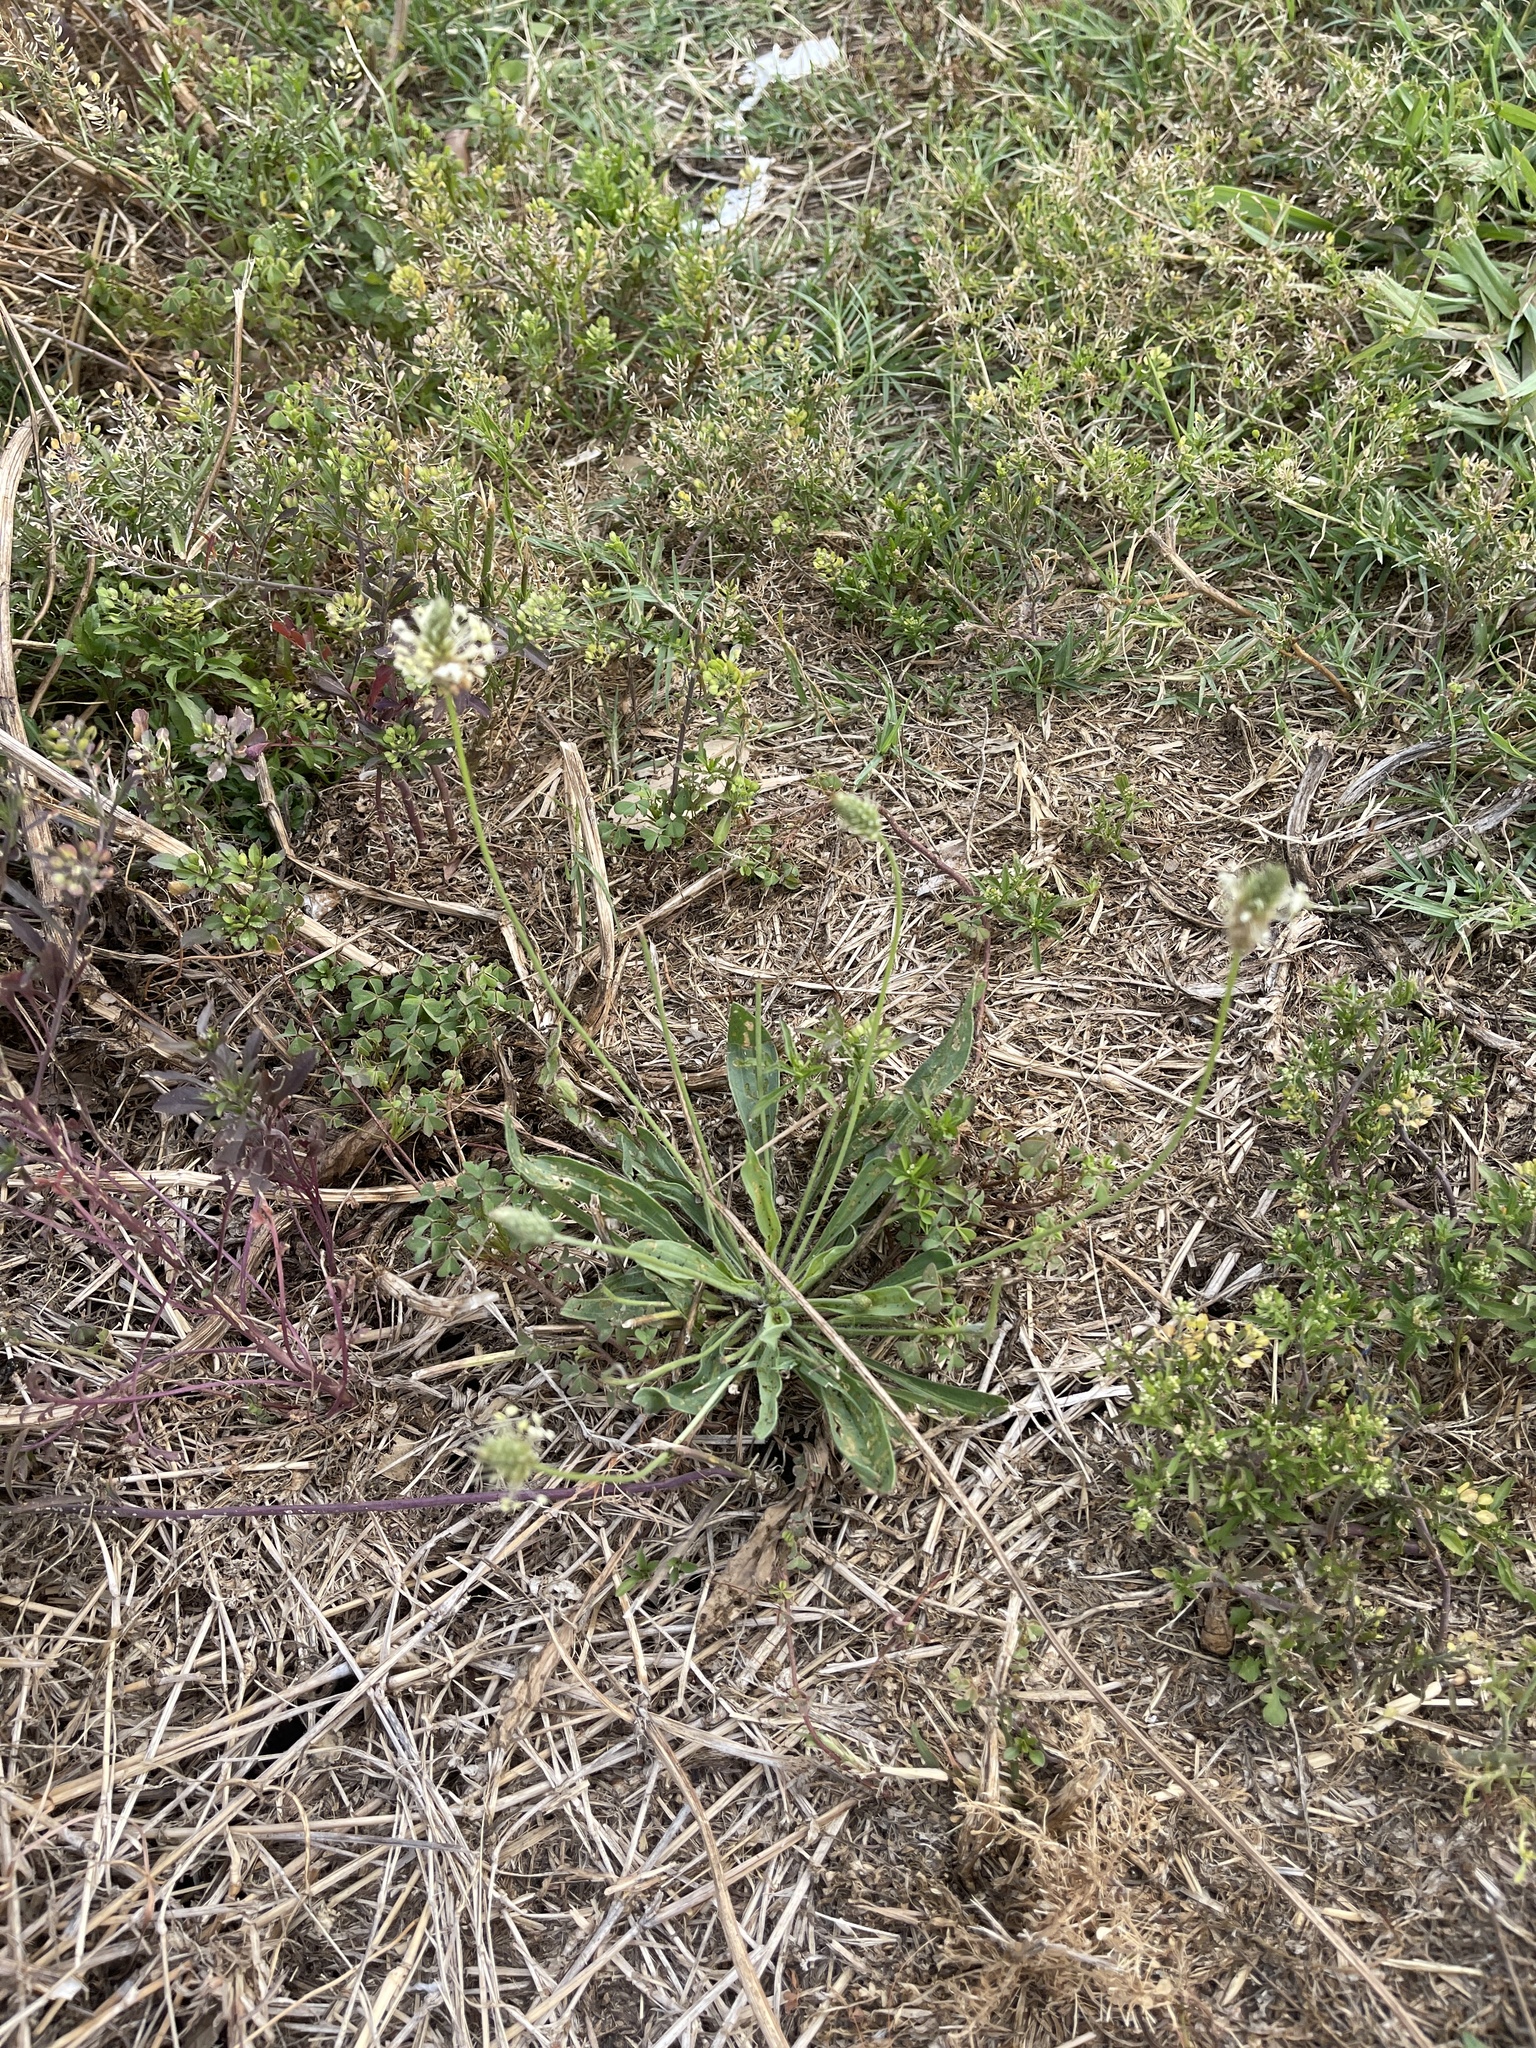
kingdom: Plantae
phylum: Tracheophyta
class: Magnoliopsida
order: Lamiales
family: Plantaginaceae
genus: Plantago
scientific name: Plantago lanceolata
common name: Ribwort plantain
